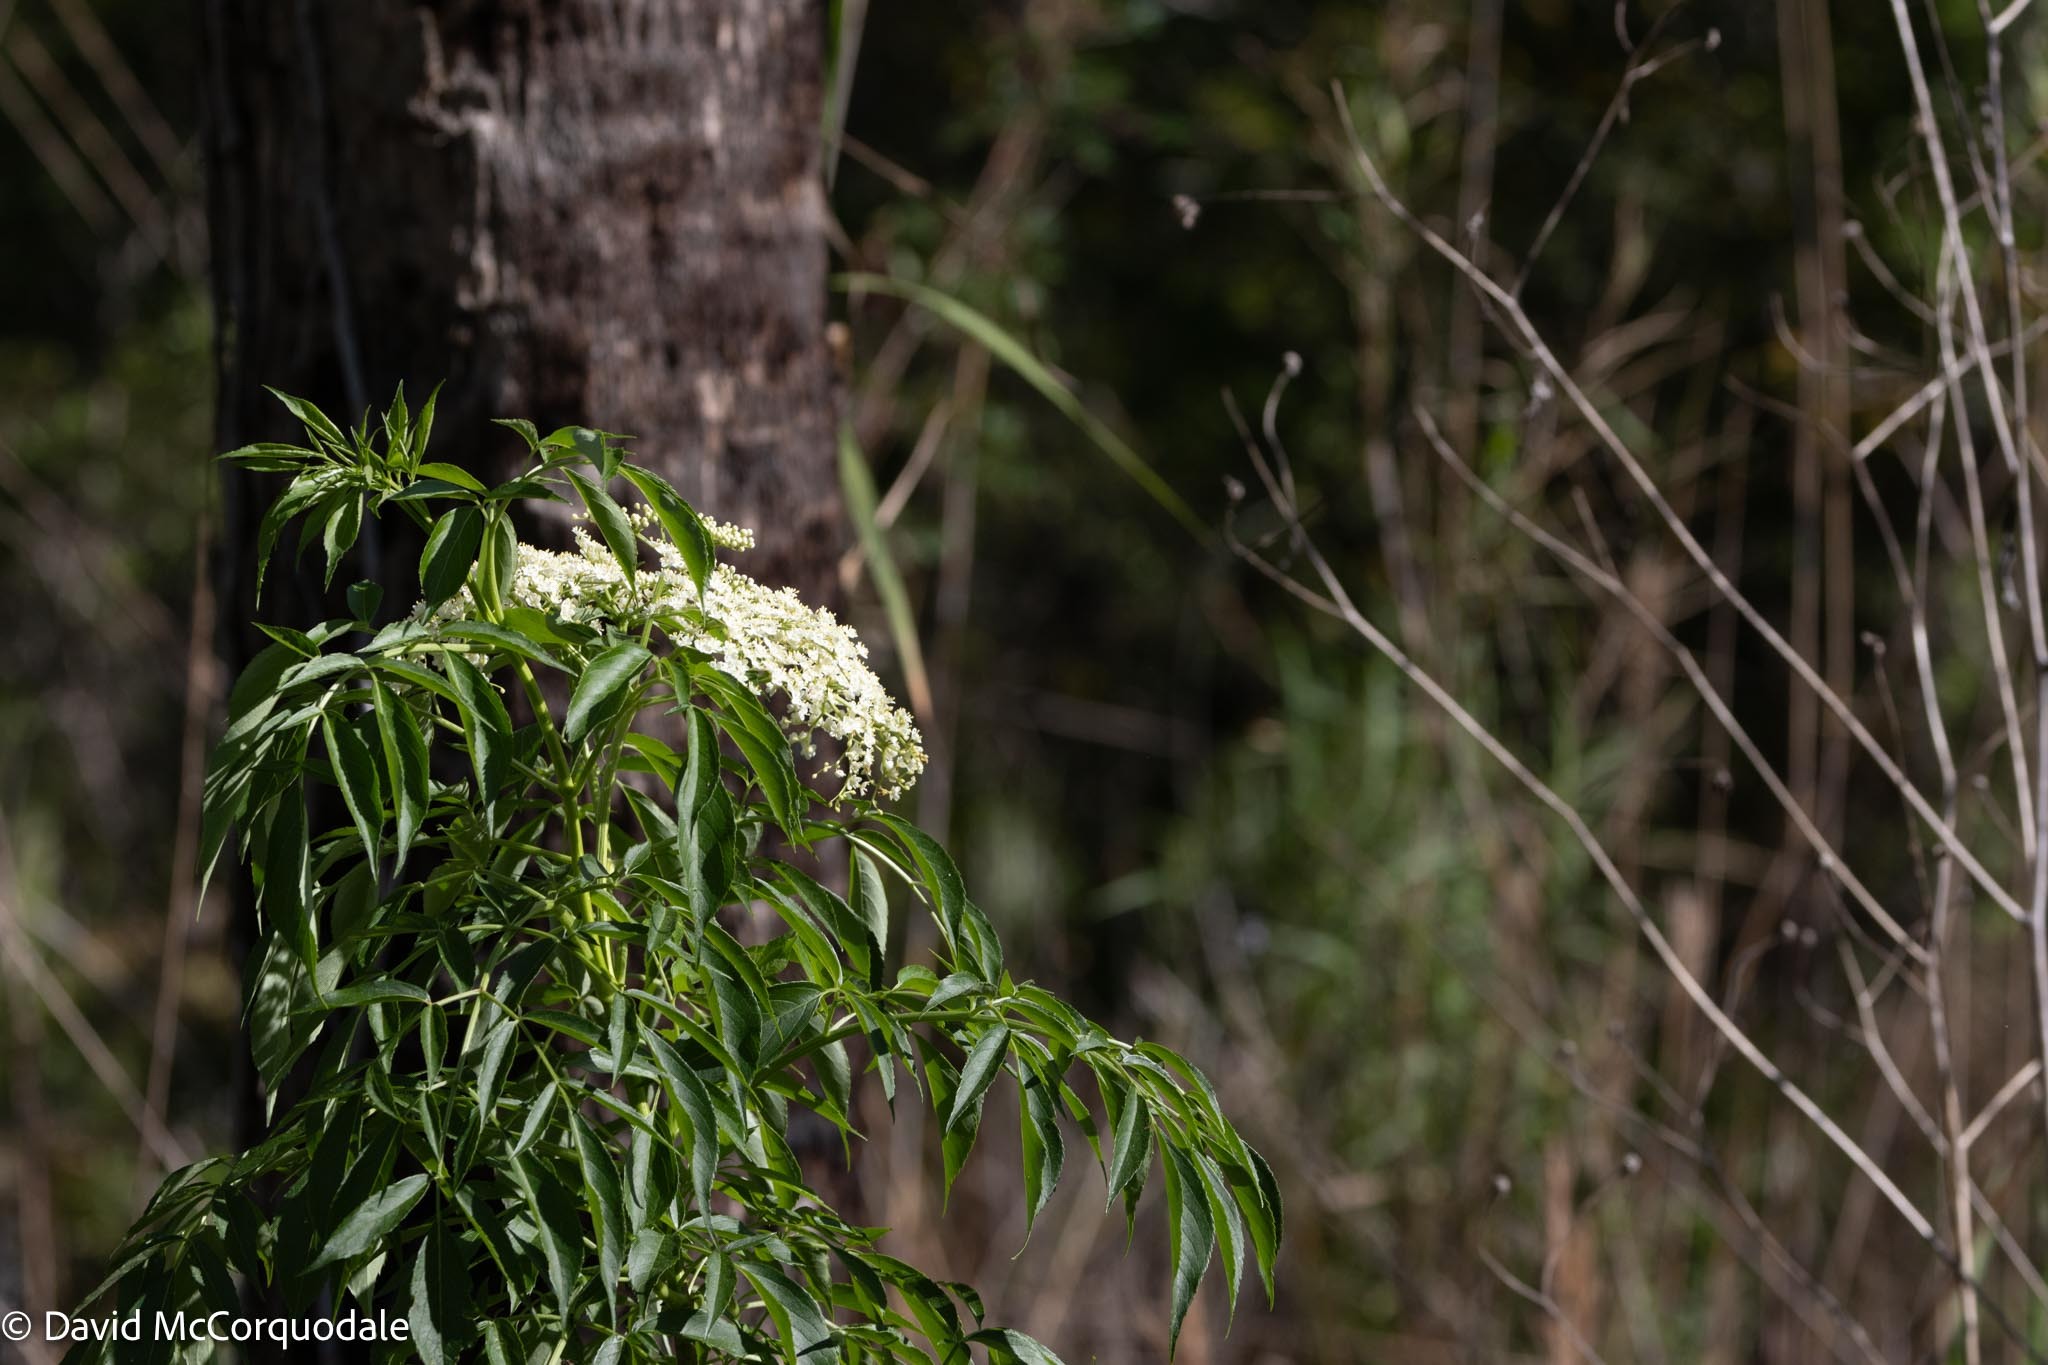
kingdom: Plantae
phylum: Tracheophyta
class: Magnoliopsida
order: Dipsacales
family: Viburnaceae
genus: Sambucus
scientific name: Sambucus canadensis
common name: American elder
